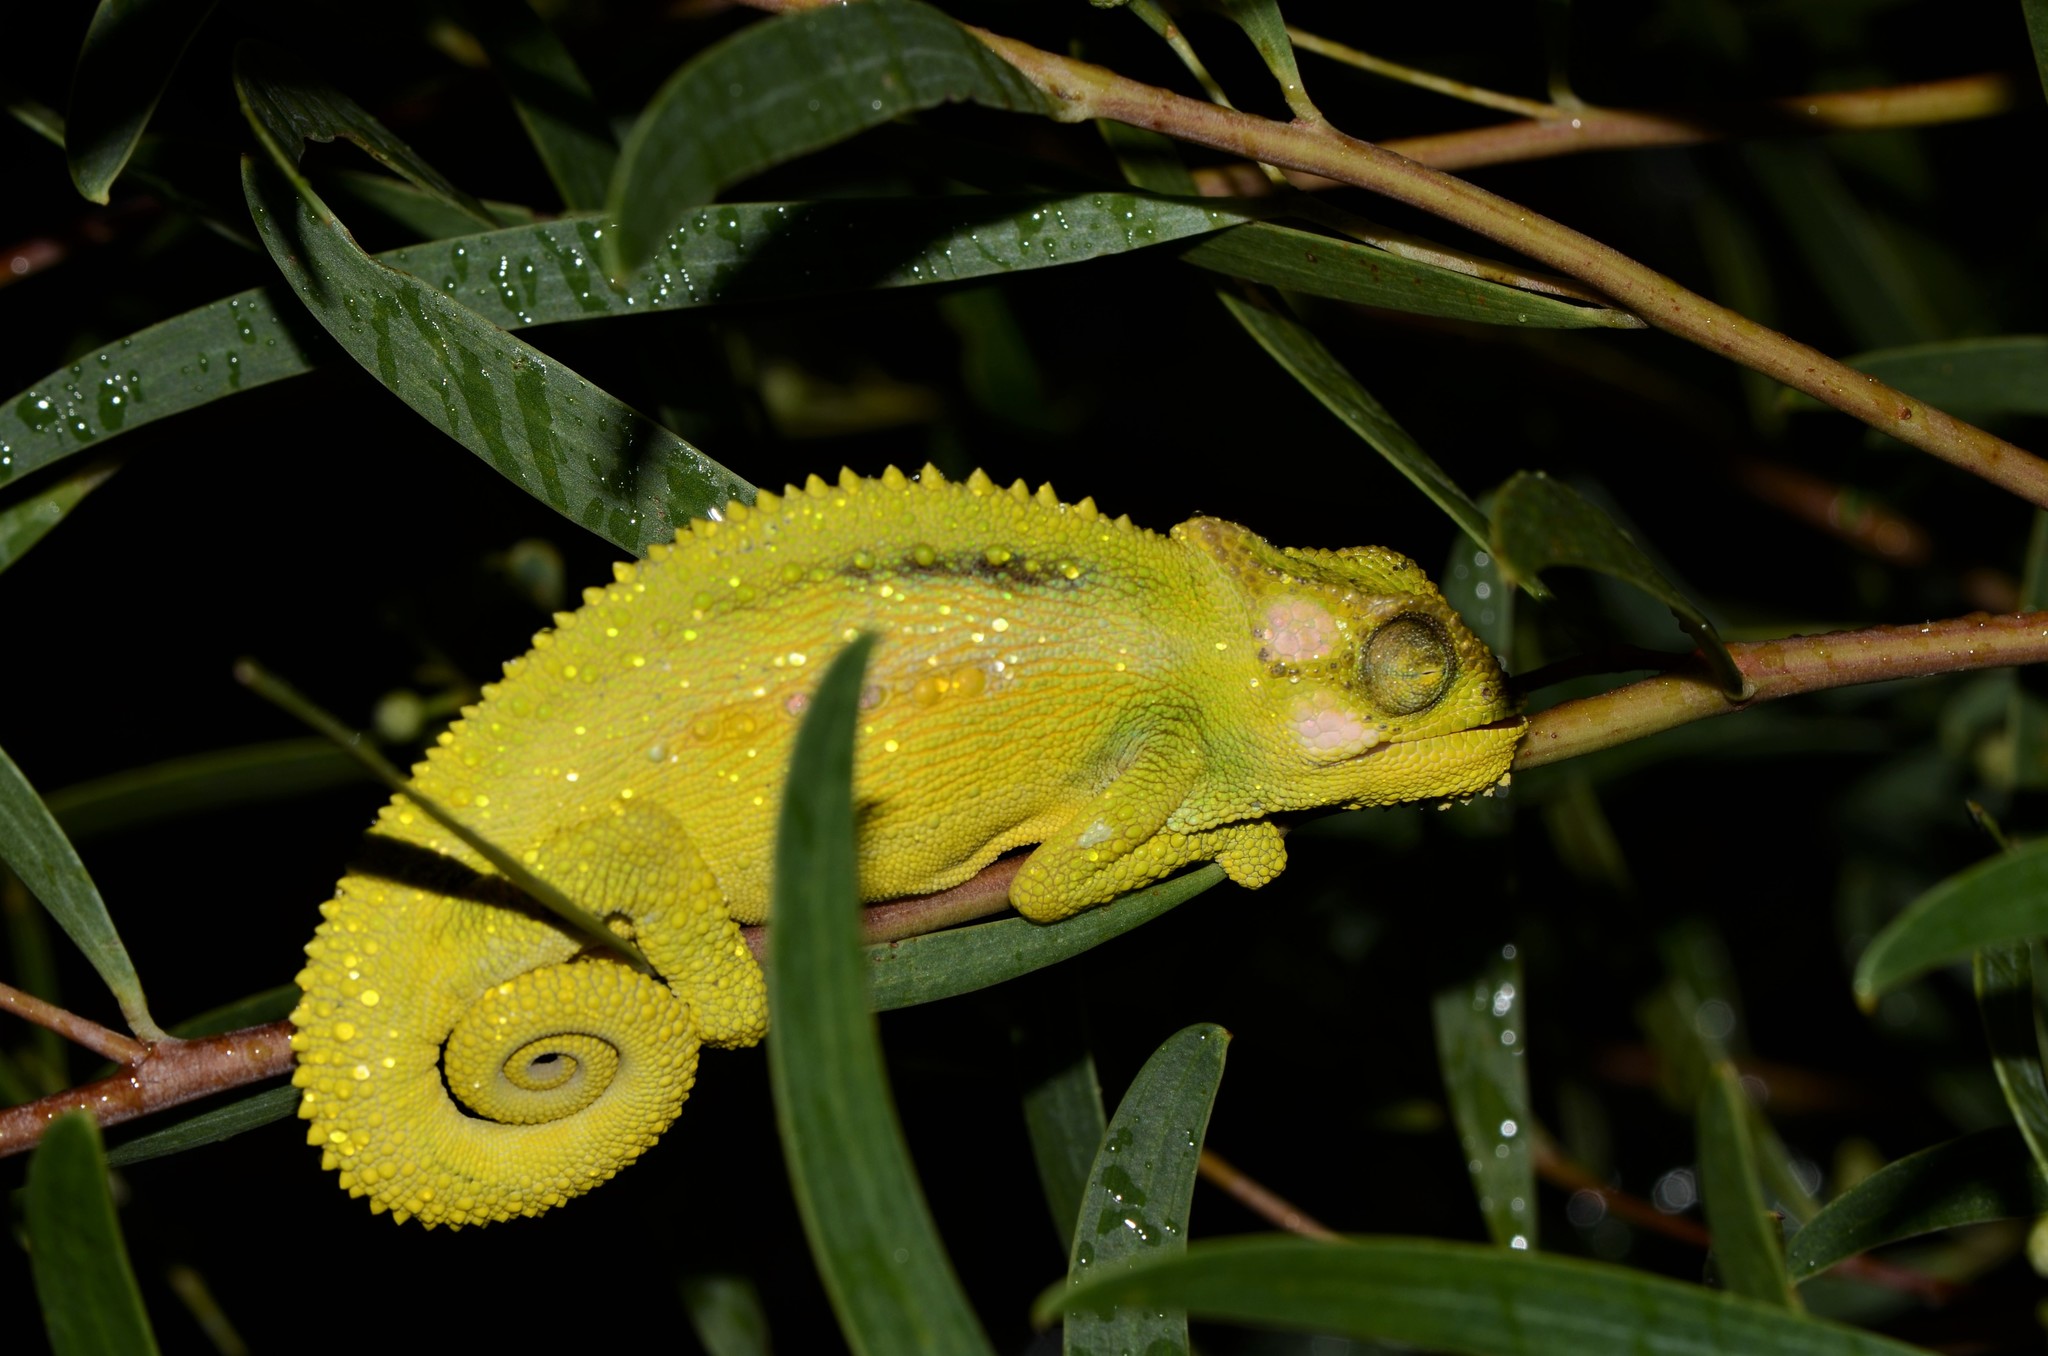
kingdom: Animalia
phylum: Chordata
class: Squamata
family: Chamaeleonidae
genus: Bradypodion
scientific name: Bradypodion pumilum
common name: Cape dwarf chameleon
